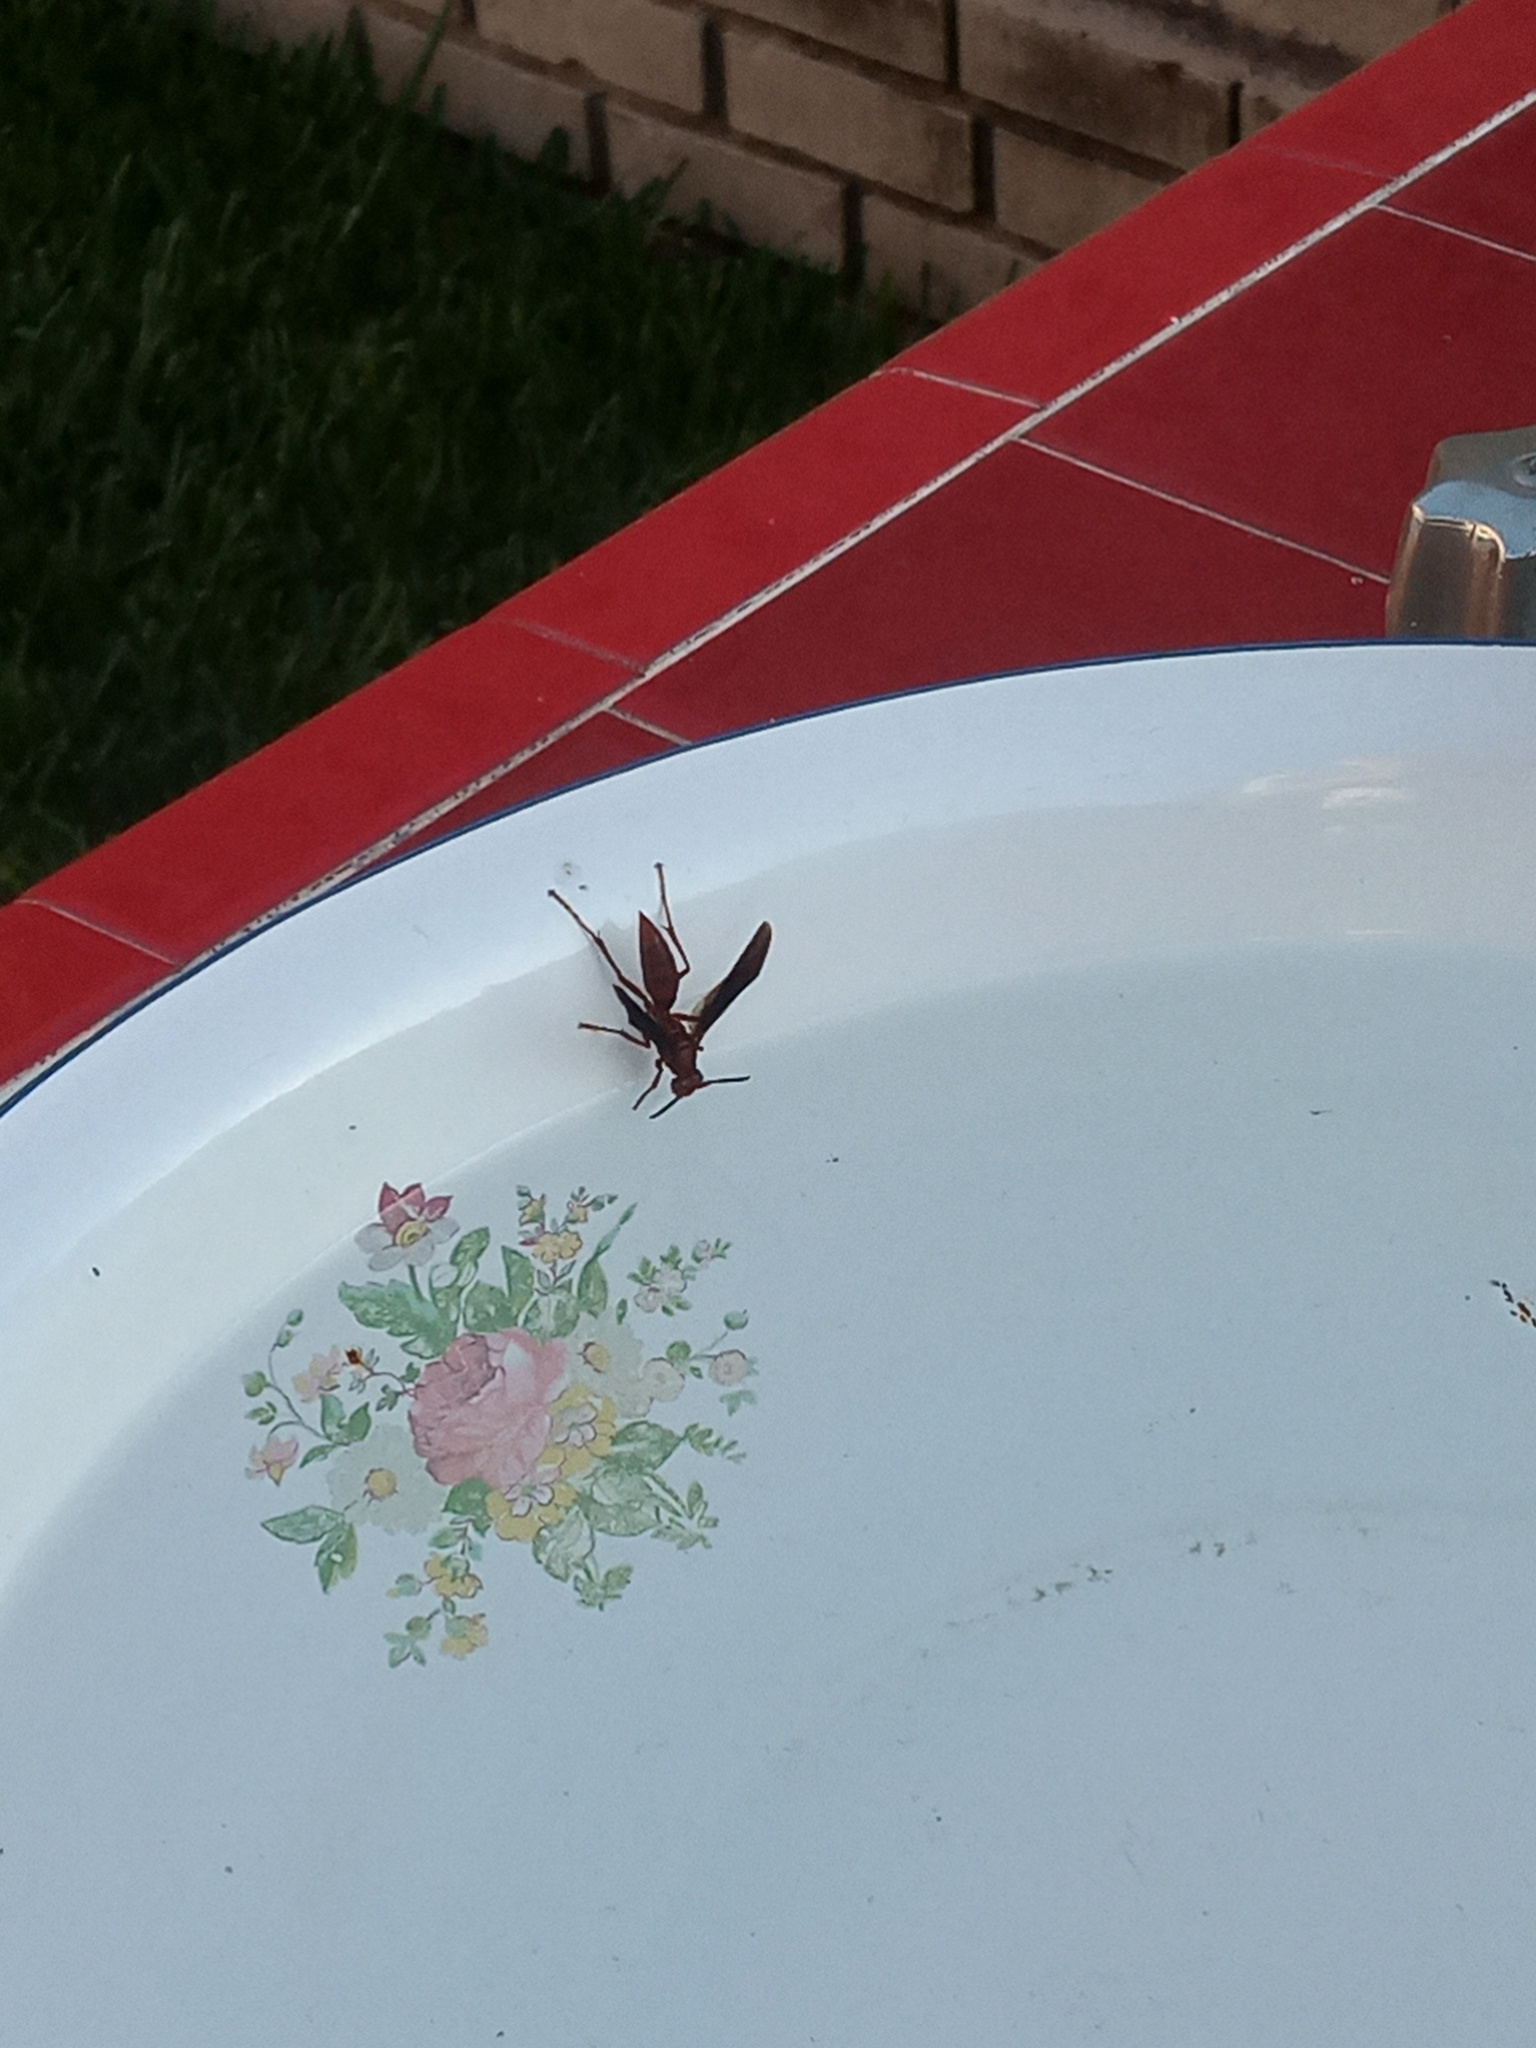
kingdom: Animalia
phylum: Arthropoda
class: Insecta
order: Hymenoptera
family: Eumenidae
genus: Polistes
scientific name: Polistes canadensis
